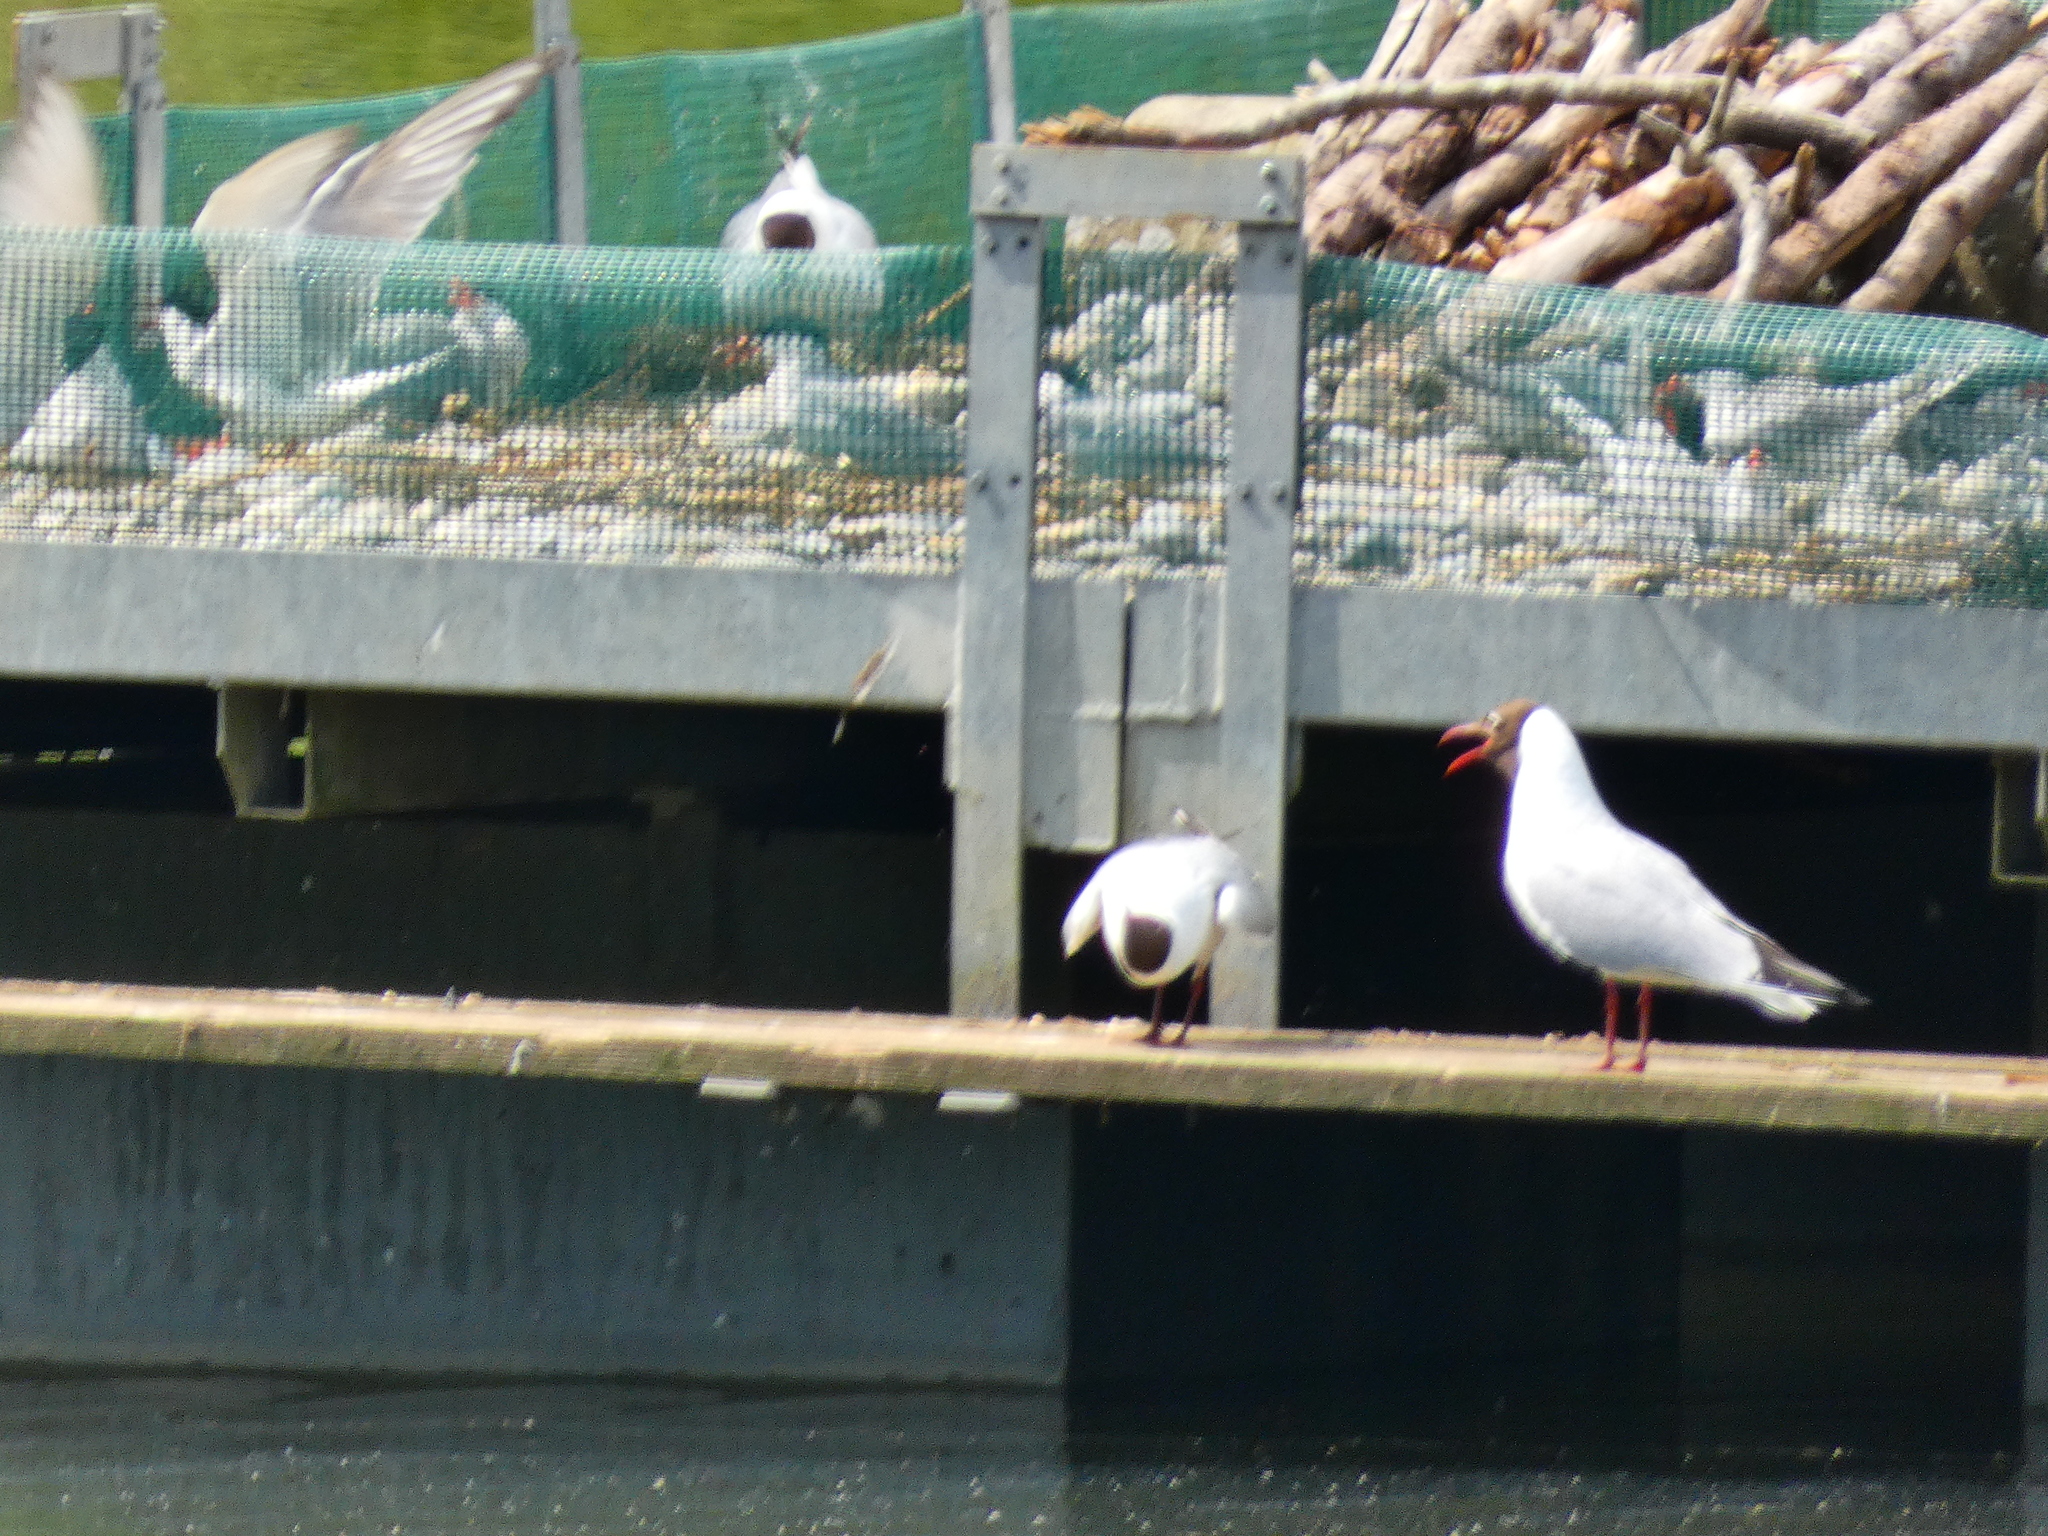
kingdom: Animalia
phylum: Chordata
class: Aves
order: Charadriiformes
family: Laridae
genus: Chroicocephalus
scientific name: Chroicocephalus ridibundus
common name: Black-headed gull
